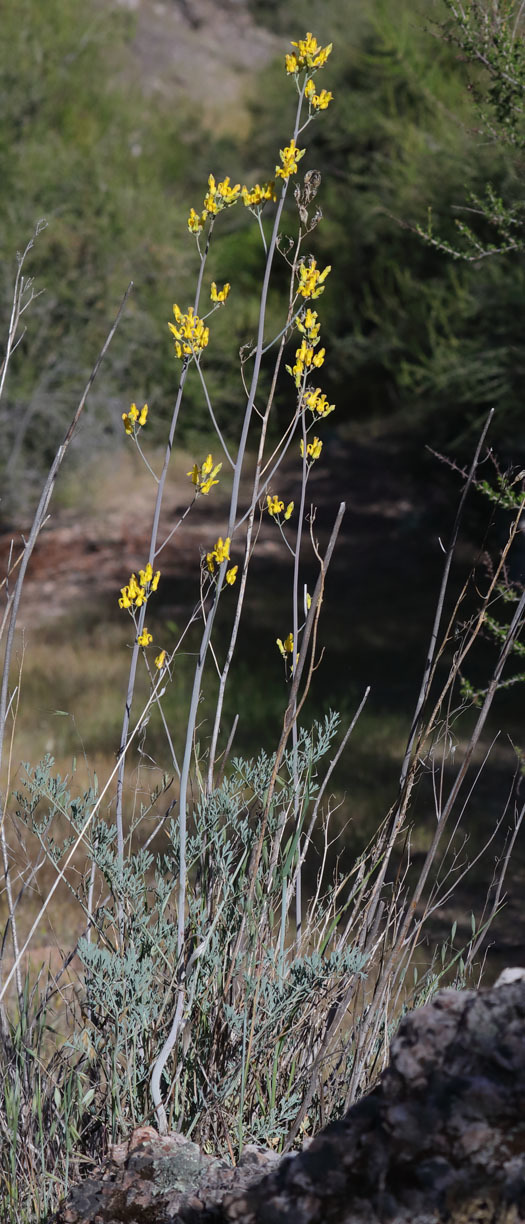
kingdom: Plantae
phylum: Tracheophyta
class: Magnoliopsida
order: Ranunculales
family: Papaveraceae
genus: Ehrendorferia
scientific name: Ehrendorferia chrysantha
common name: Golden eardrops
